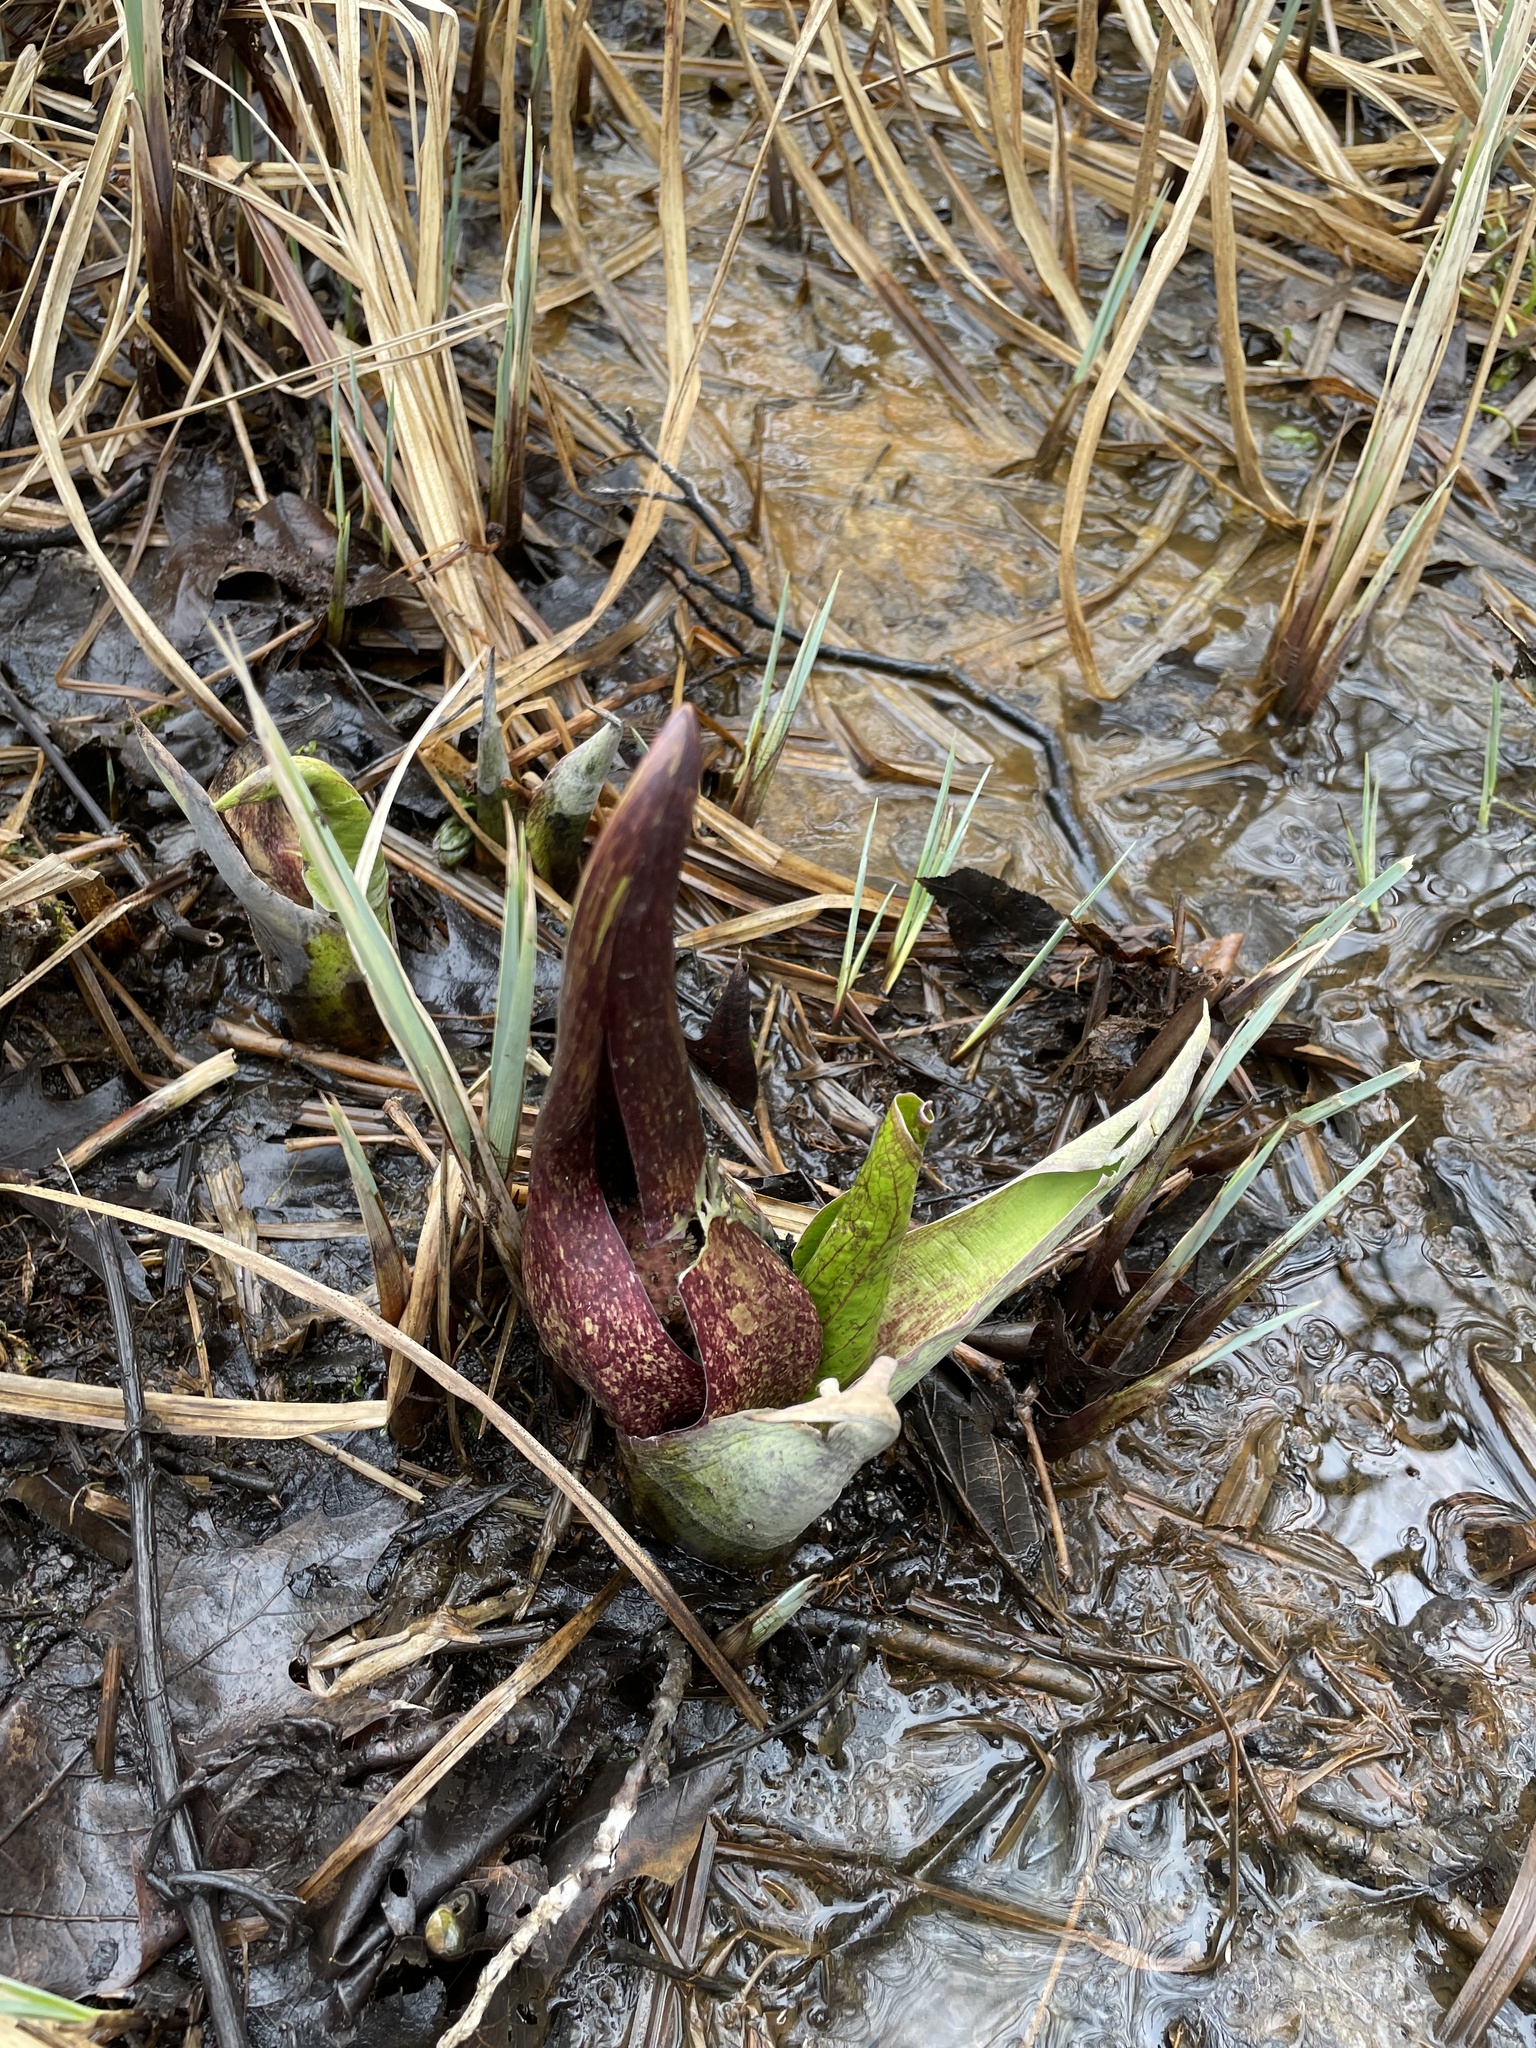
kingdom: Plantae
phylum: Tracheophyta
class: Liliopsida
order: Alismatales
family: Araceae
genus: Symplocarpus
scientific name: Symplocarpus foetidus
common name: Eastern skunk cabbage
